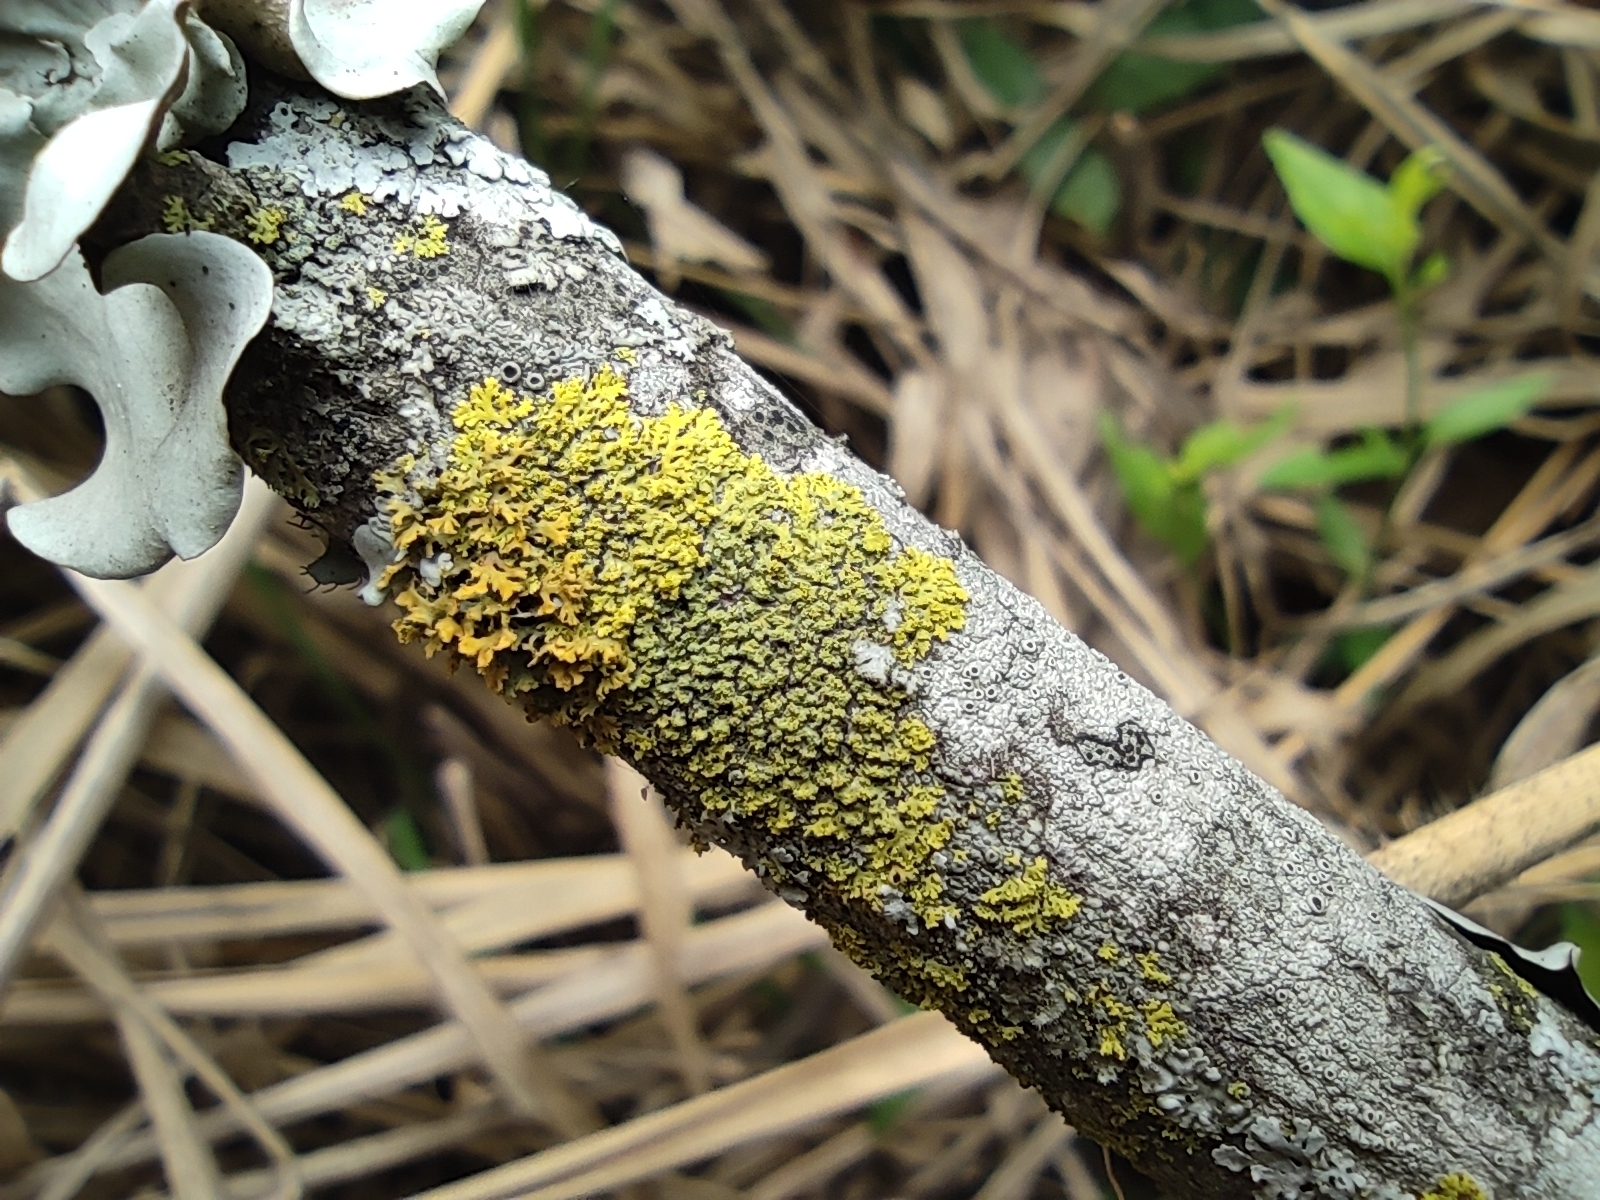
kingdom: Fungi
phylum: Ascomycota
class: Candelariomycetes
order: Candelariales
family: Candelariaceae
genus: Candelaria
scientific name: Candelaria concolor
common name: Candleflame lichen
